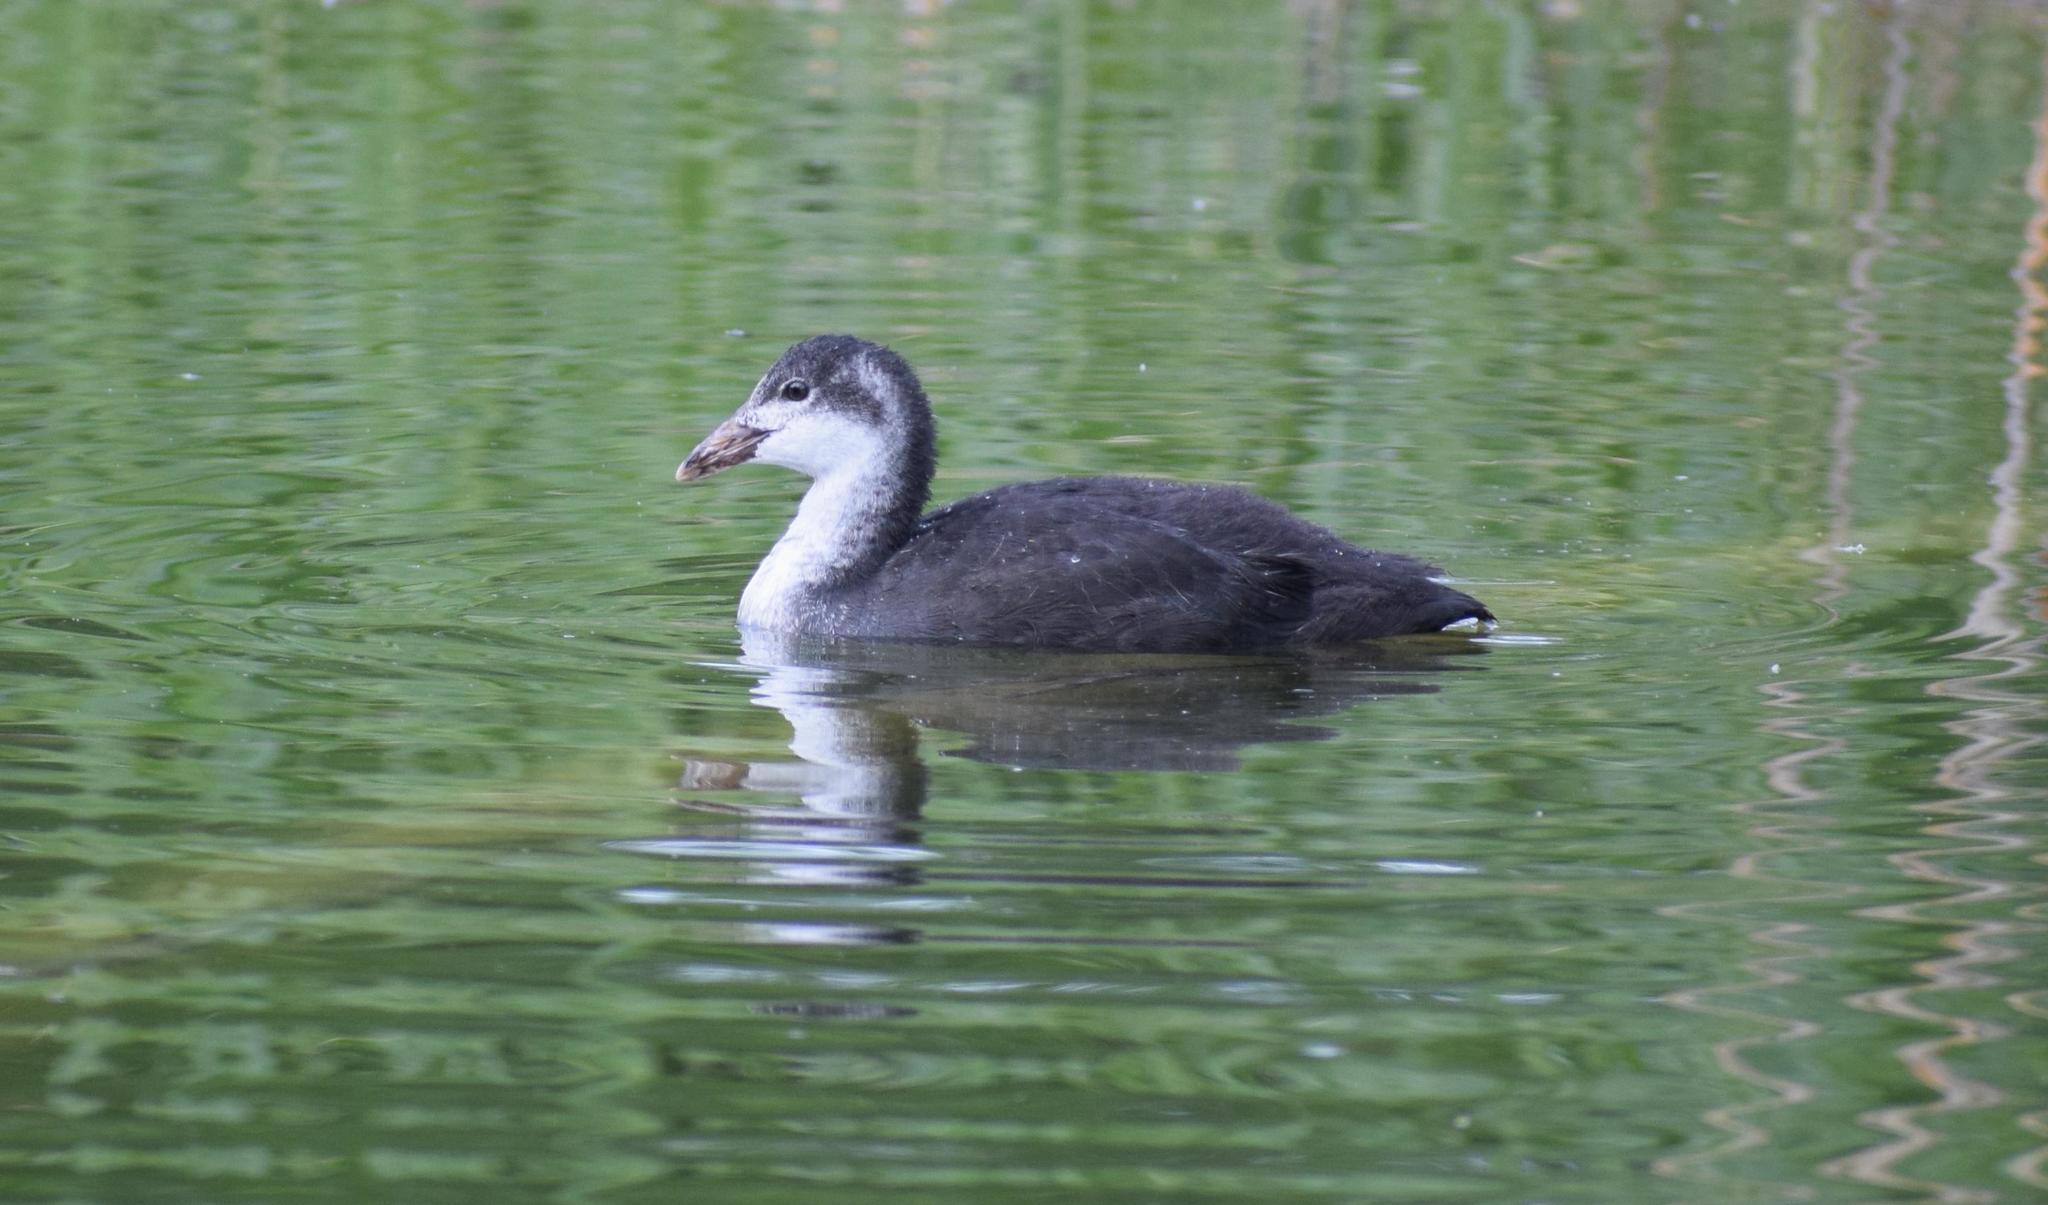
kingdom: Animalia
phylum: Chordata
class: Aves
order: Gruiformes
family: Rallidae
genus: Fulica
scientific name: Fulica atra
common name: Eurasian coot
